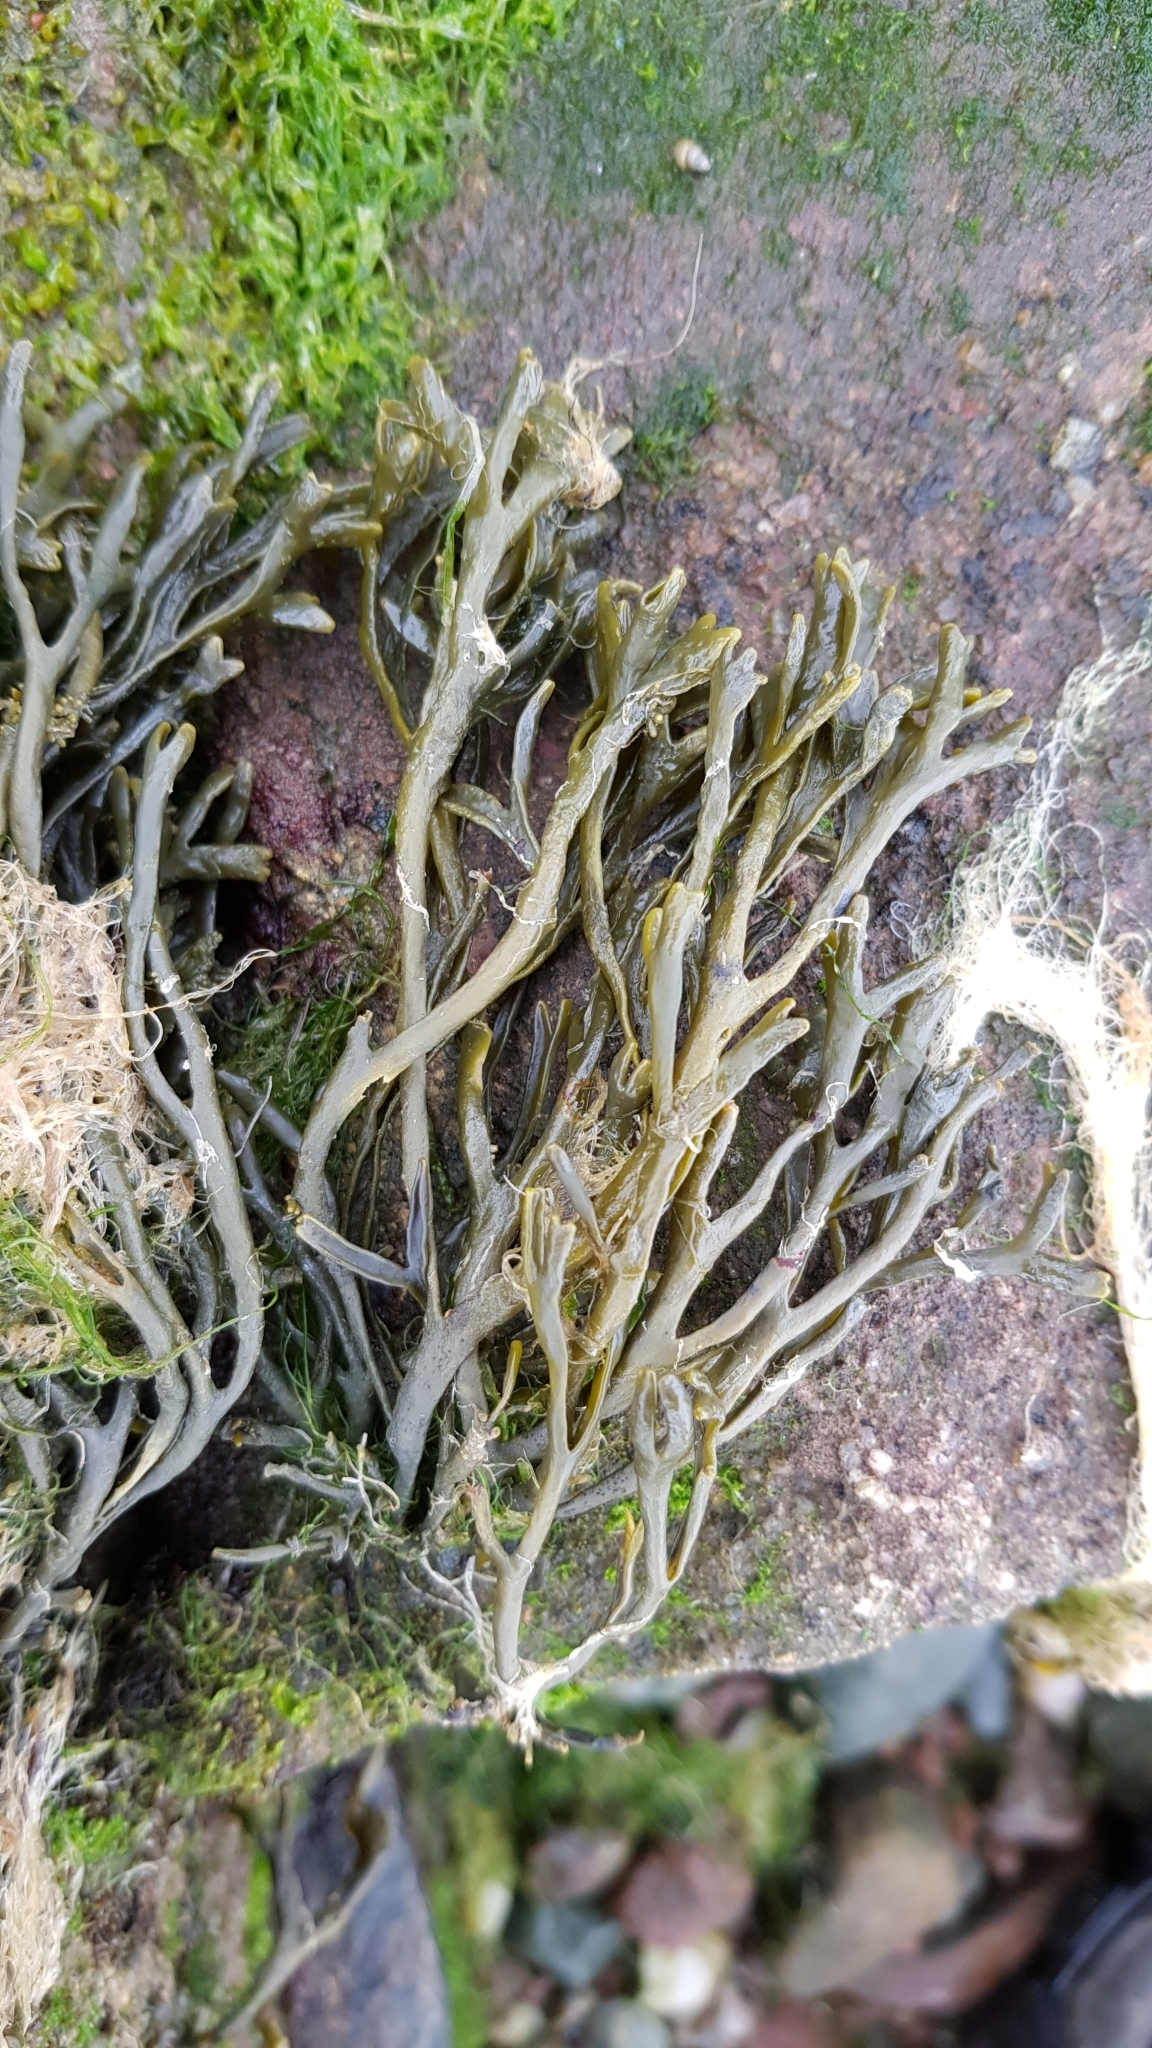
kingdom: Chromista
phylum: Ochrophyta
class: Phaeophyceae
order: Fucales
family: Fucaceae
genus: Pelvetia
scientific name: Pelvetia canaliculata
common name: Channelled wrack
